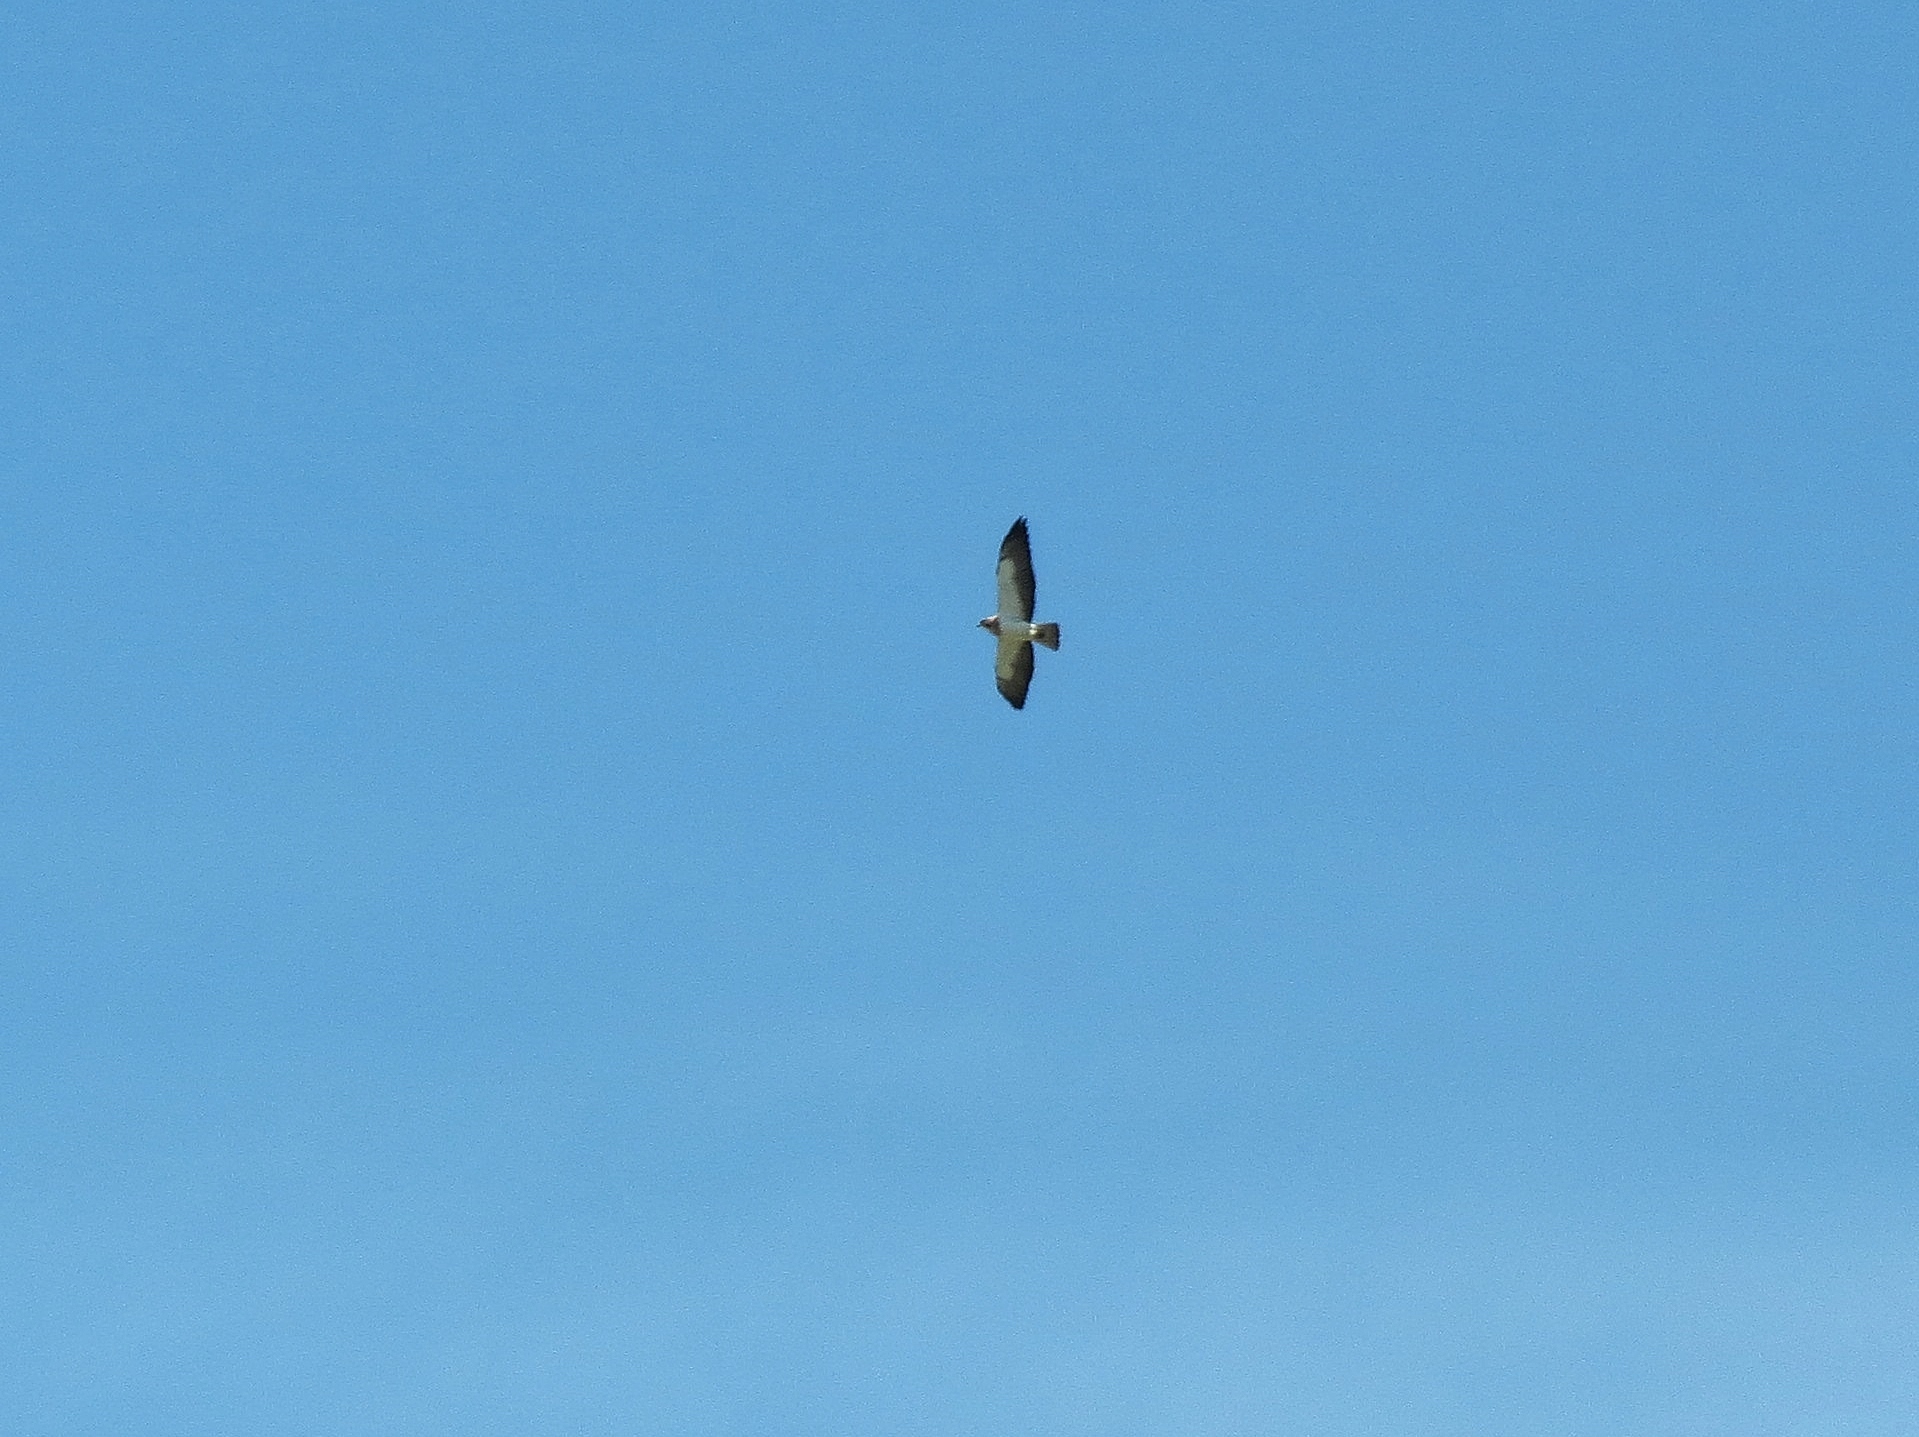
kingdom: Animalia
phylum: Chordata
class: Aves
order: Accipitriformes
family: Accipitridae
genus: Buteo
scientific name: Buteo swainsoni
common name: Swainson's hawk
